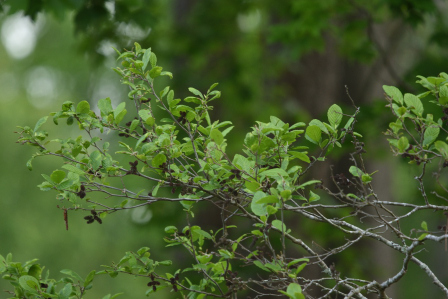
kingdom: Plantae
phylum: Tracheophyta
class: Magnoliopsida
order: Fagales
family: Betulaceae
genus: Alnus
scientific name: Alnus serrulata
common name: Hazel alder
